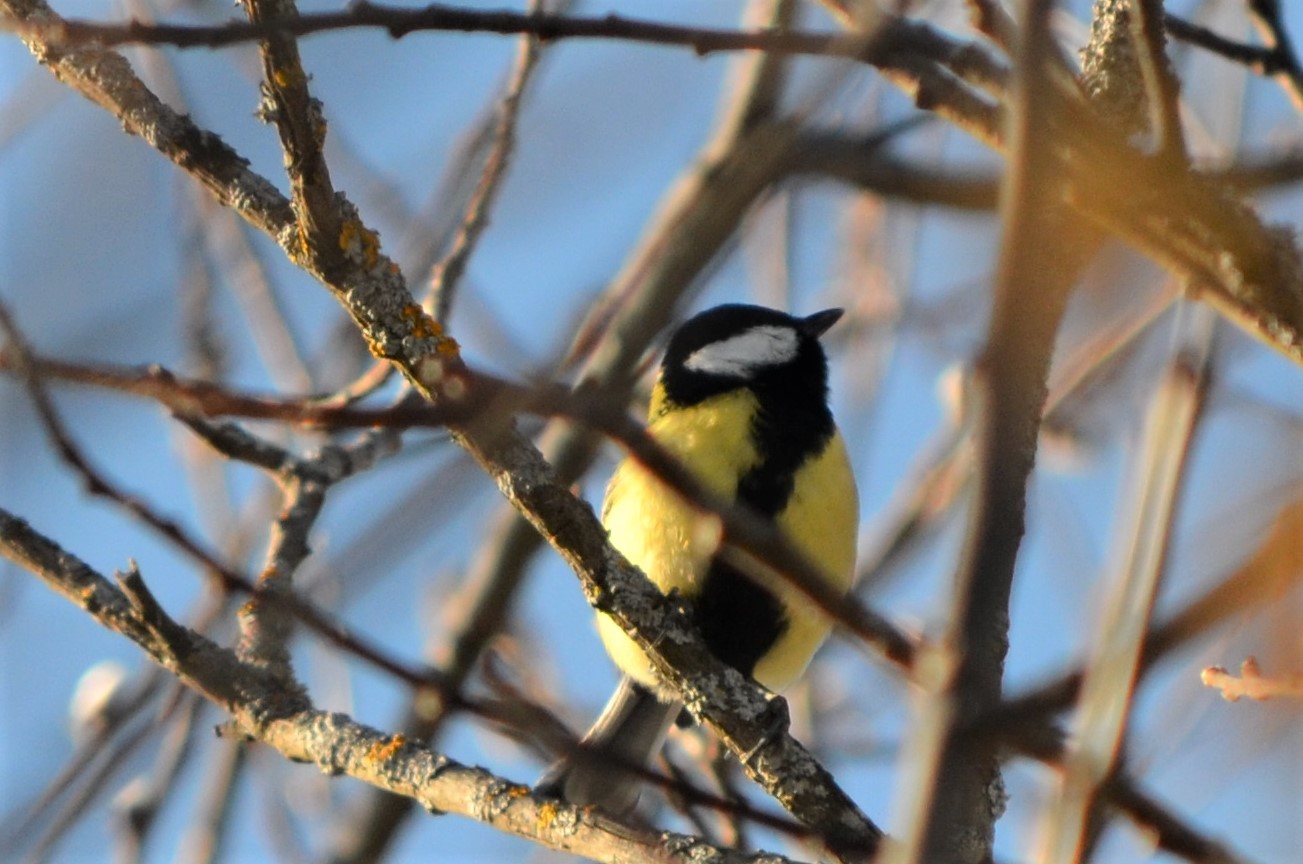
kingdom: Animalia
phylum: Chordata
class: Aves
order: Passeriformes
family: Paridae
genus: Parus
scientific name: Parus major
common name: Great tit
